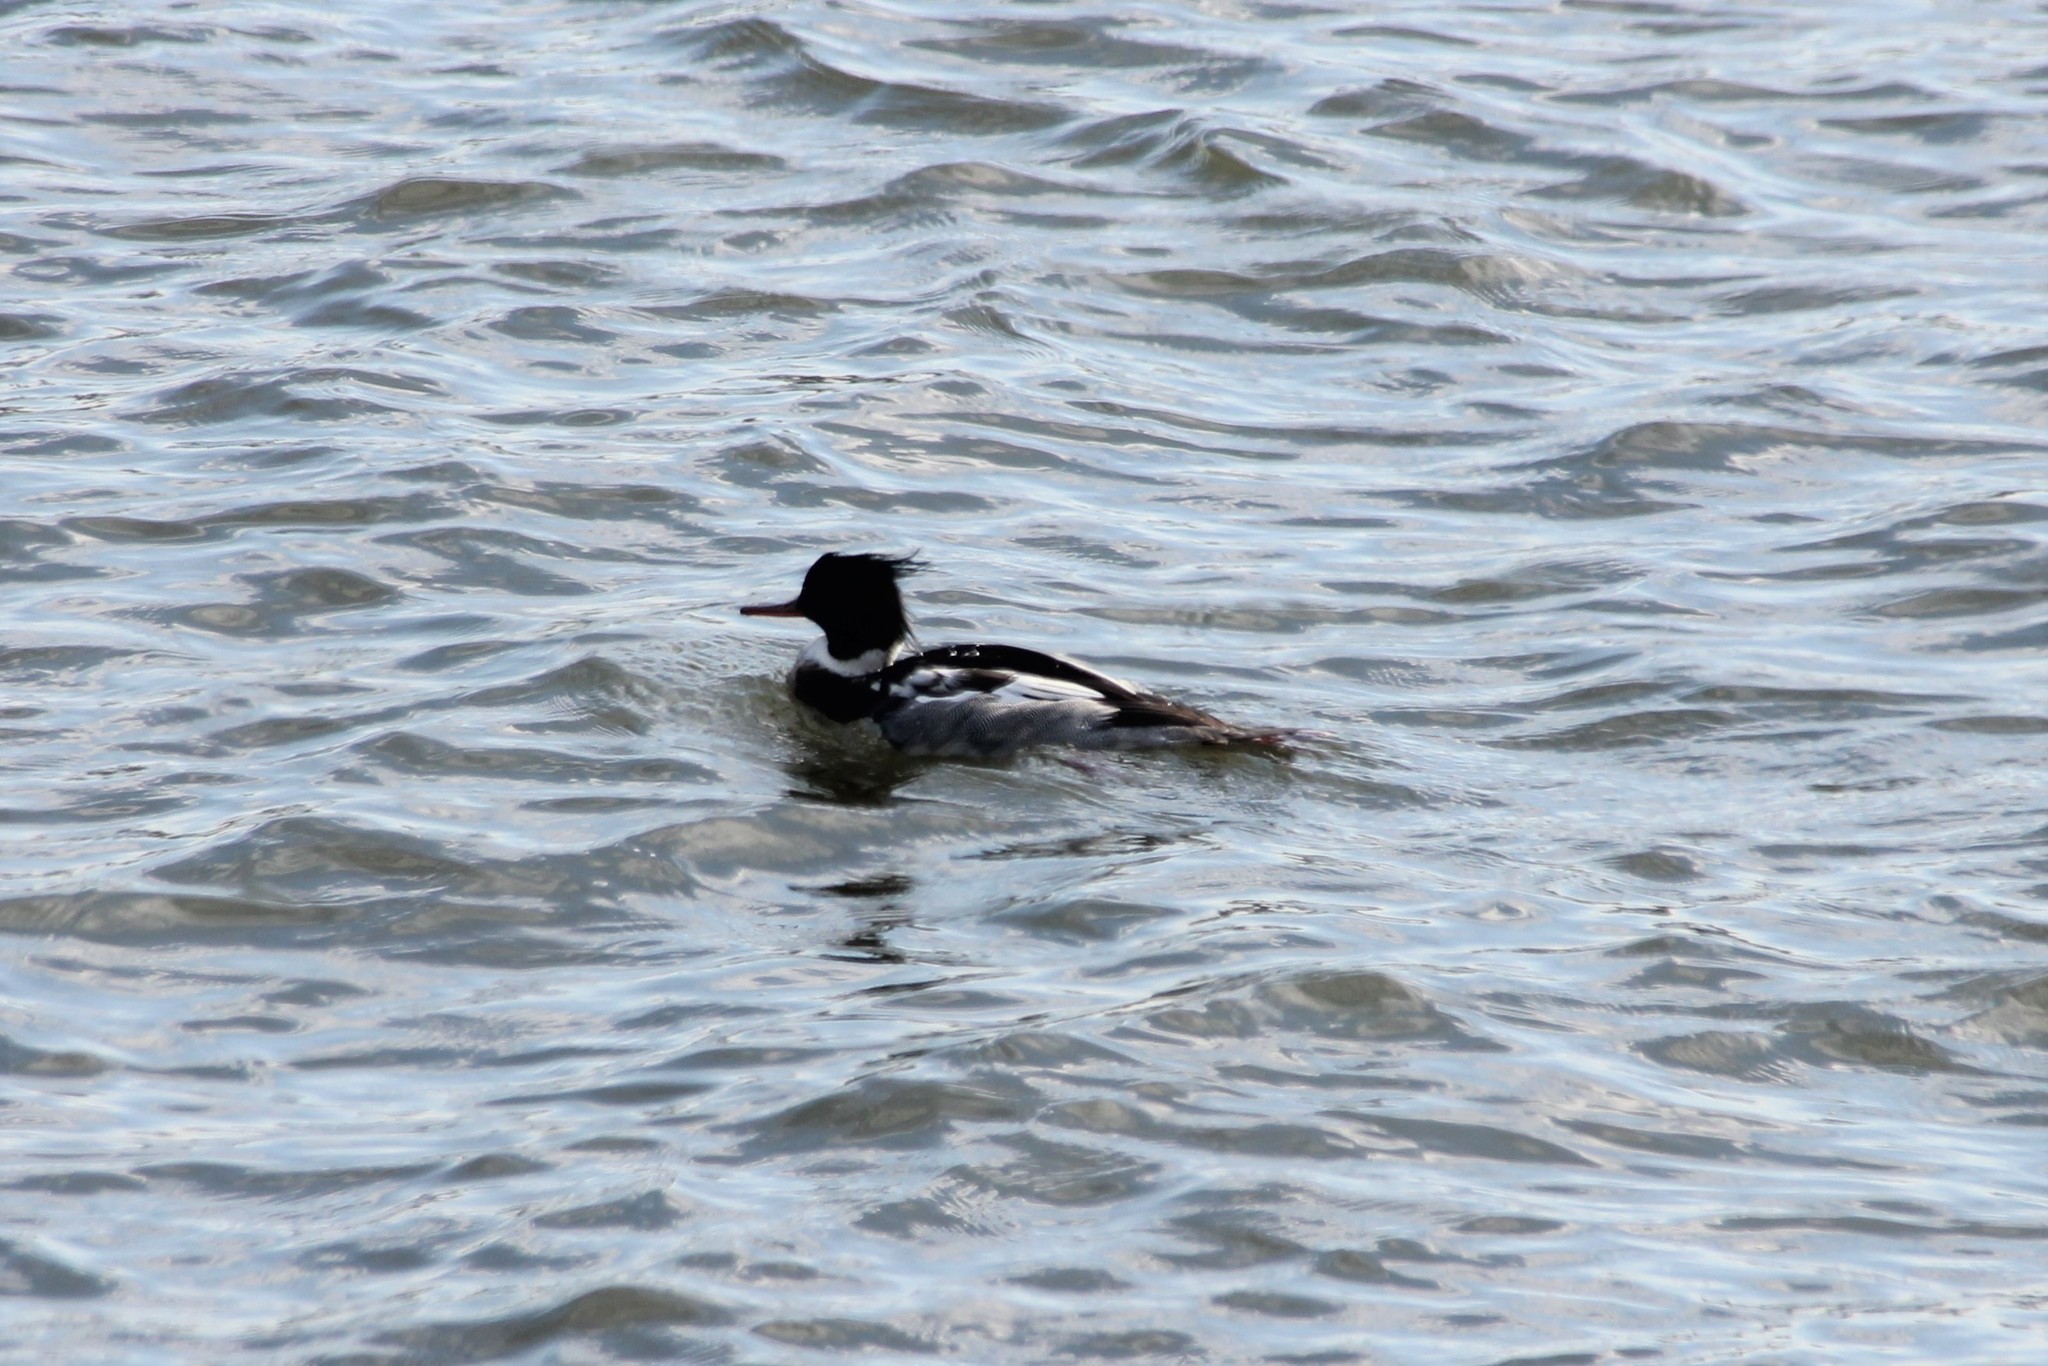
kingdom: Animalia
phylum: Chordata
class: Aves
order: Anseriformes
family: Anatidae
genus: Mergus
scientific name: Mergus serrator
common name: Red-breasted merganser
